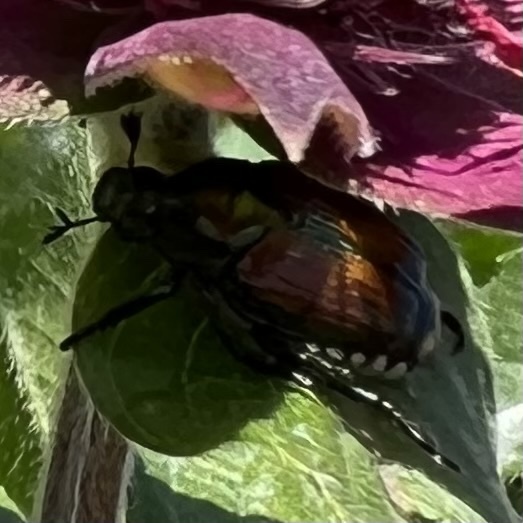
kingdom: Animalia
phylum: Arthropoda
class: Insecta
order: Coleoptera
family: Scarabaeidae
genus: Popillia
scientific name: Popillia japonica
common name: Japanese beetle
